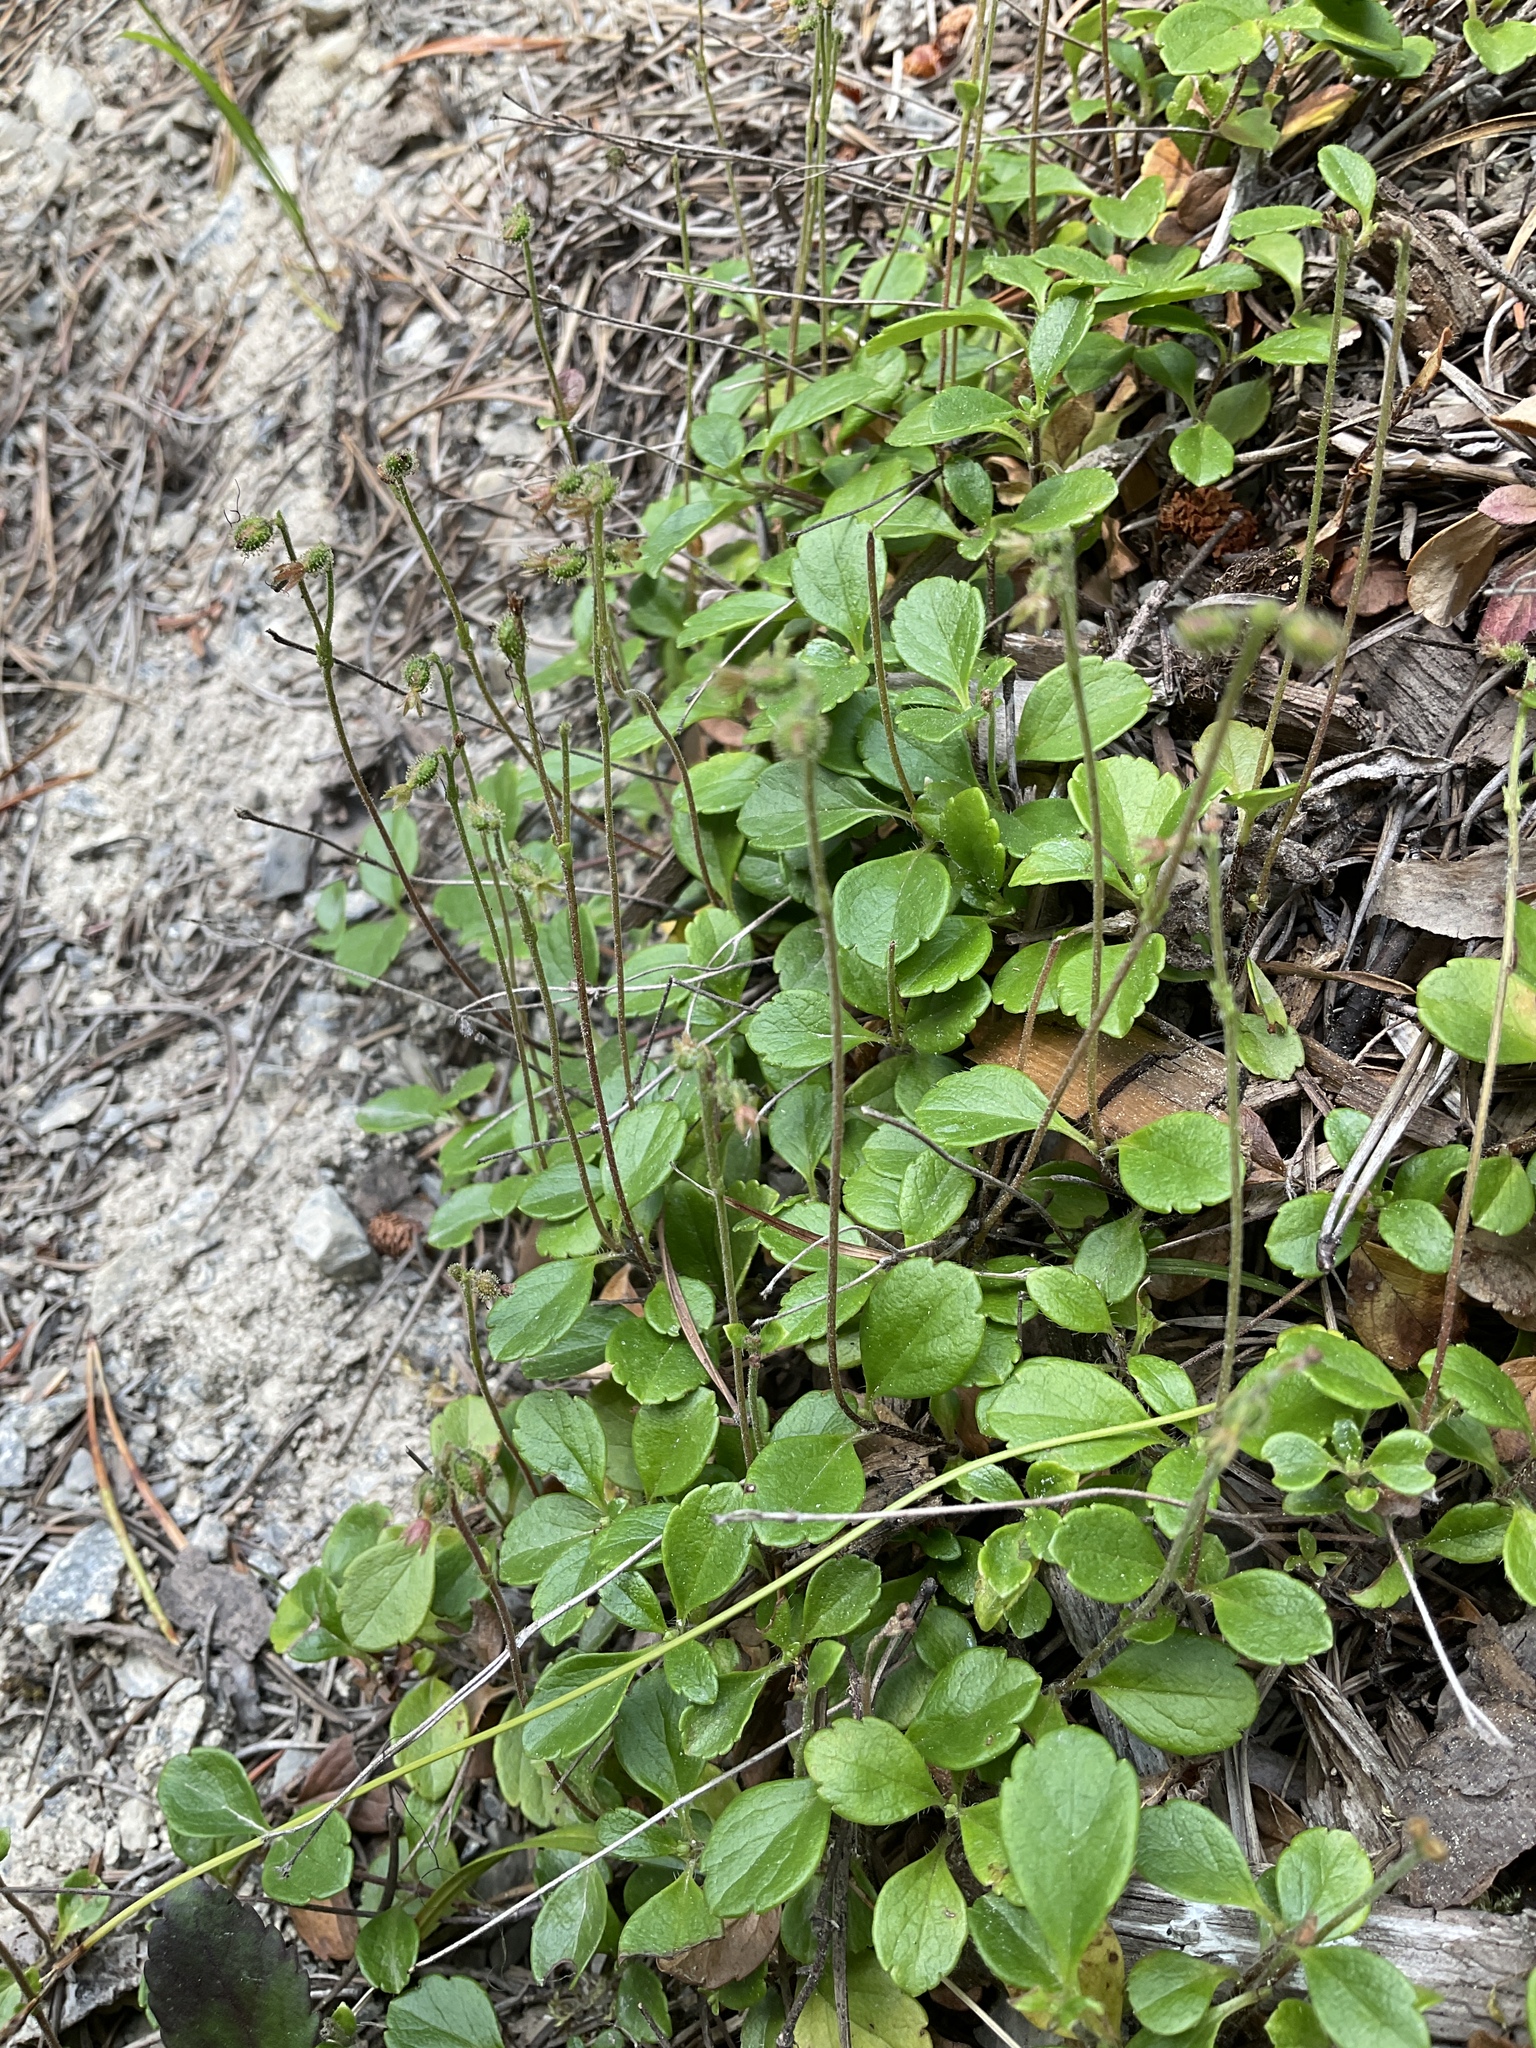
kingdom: Plantae
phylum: Tracheophyta
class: Magnoliopsida
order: Dipsacales
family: Caprifoliaceae
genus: Linnaea
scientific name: Linnaea borealis
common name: Twinflower
